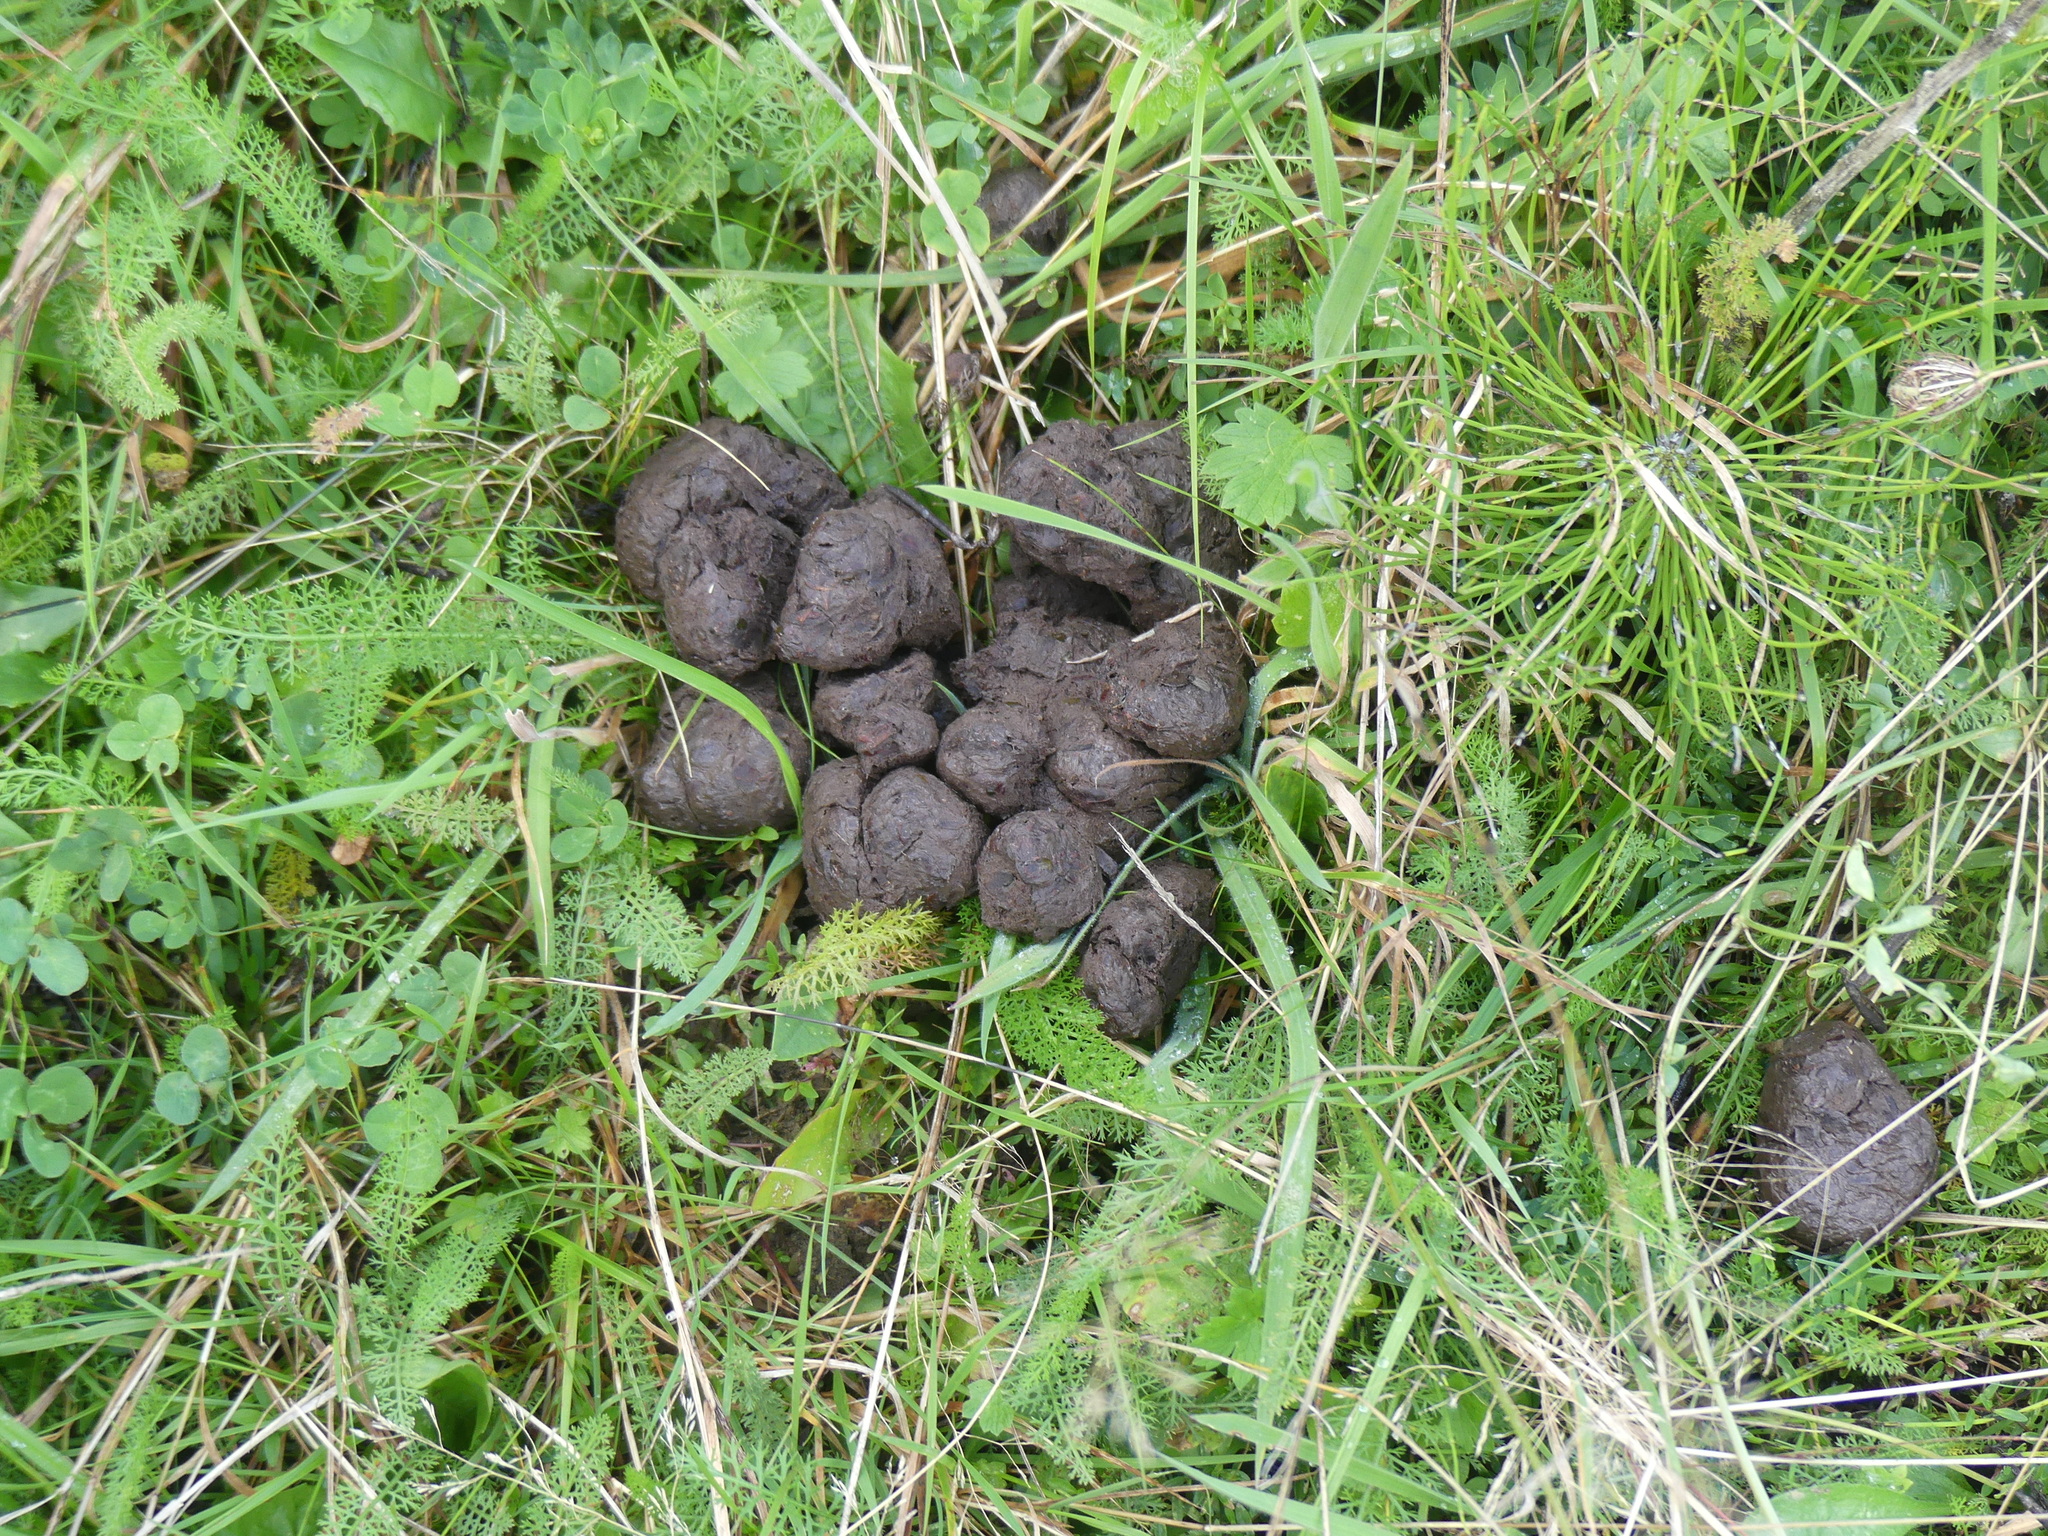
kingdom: Animalia
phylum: Chordata
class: Mammalia
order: Carnivora
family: Ursidae
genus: Ursus
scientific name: Ursus arctos
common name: Brown bear
